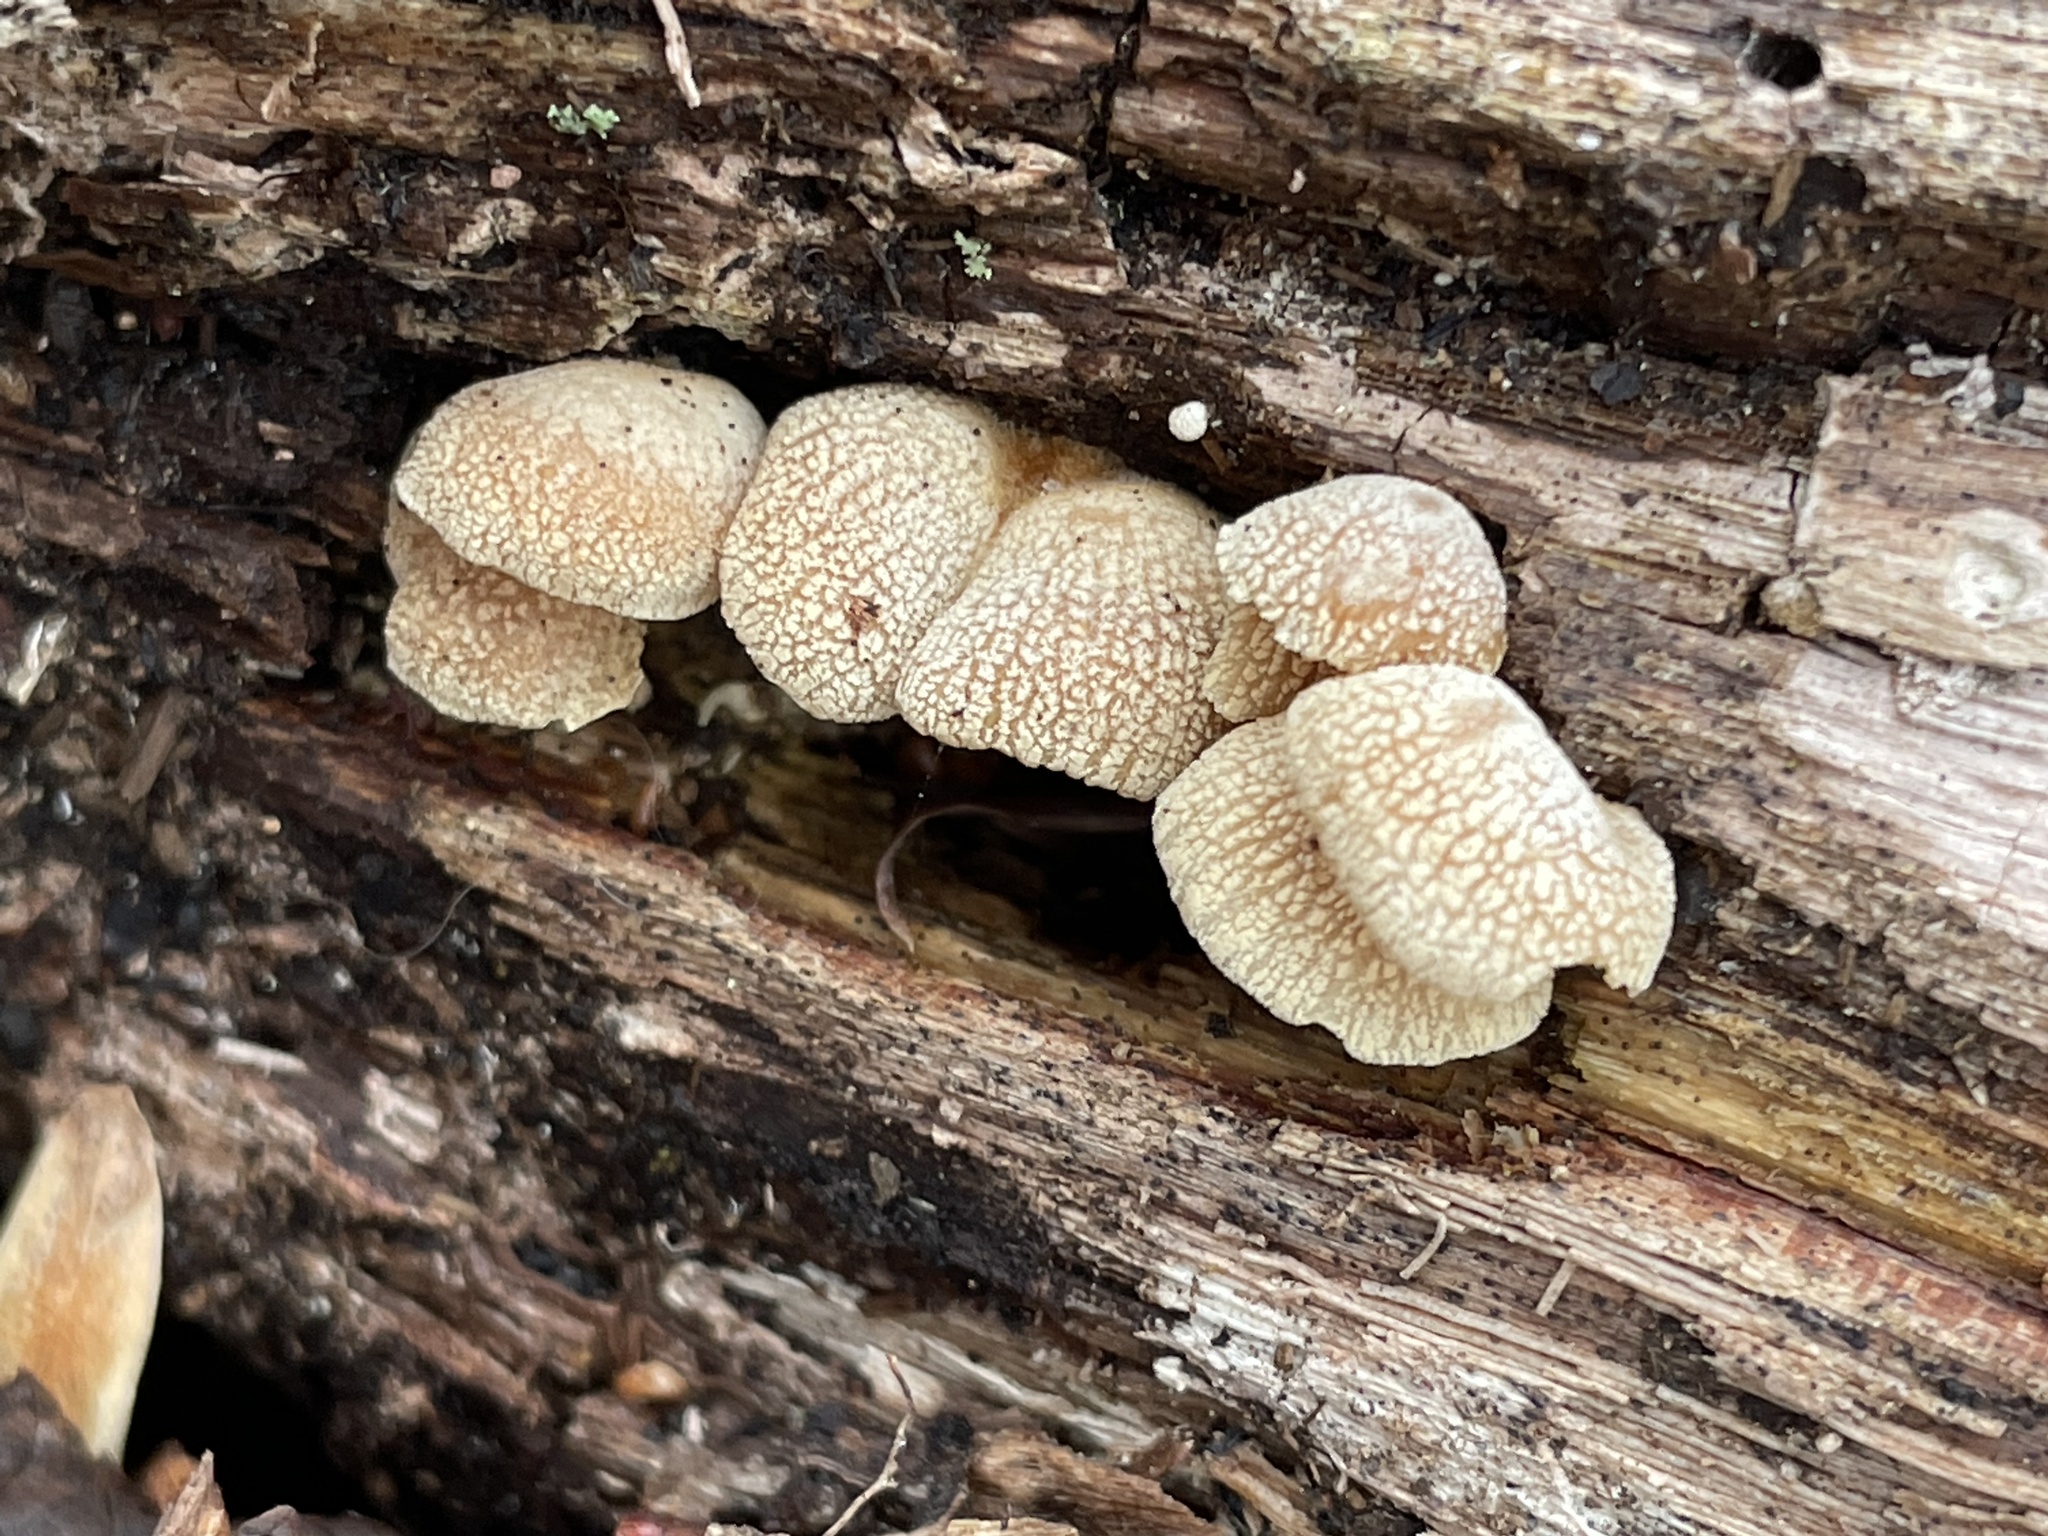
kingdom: Fungi
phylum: Basidiomycota
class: Agaricomycetes
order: Agaricales
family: Mycenaceae
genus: Panellus
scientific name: Panellus stipticus
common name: Bitter oysterling
